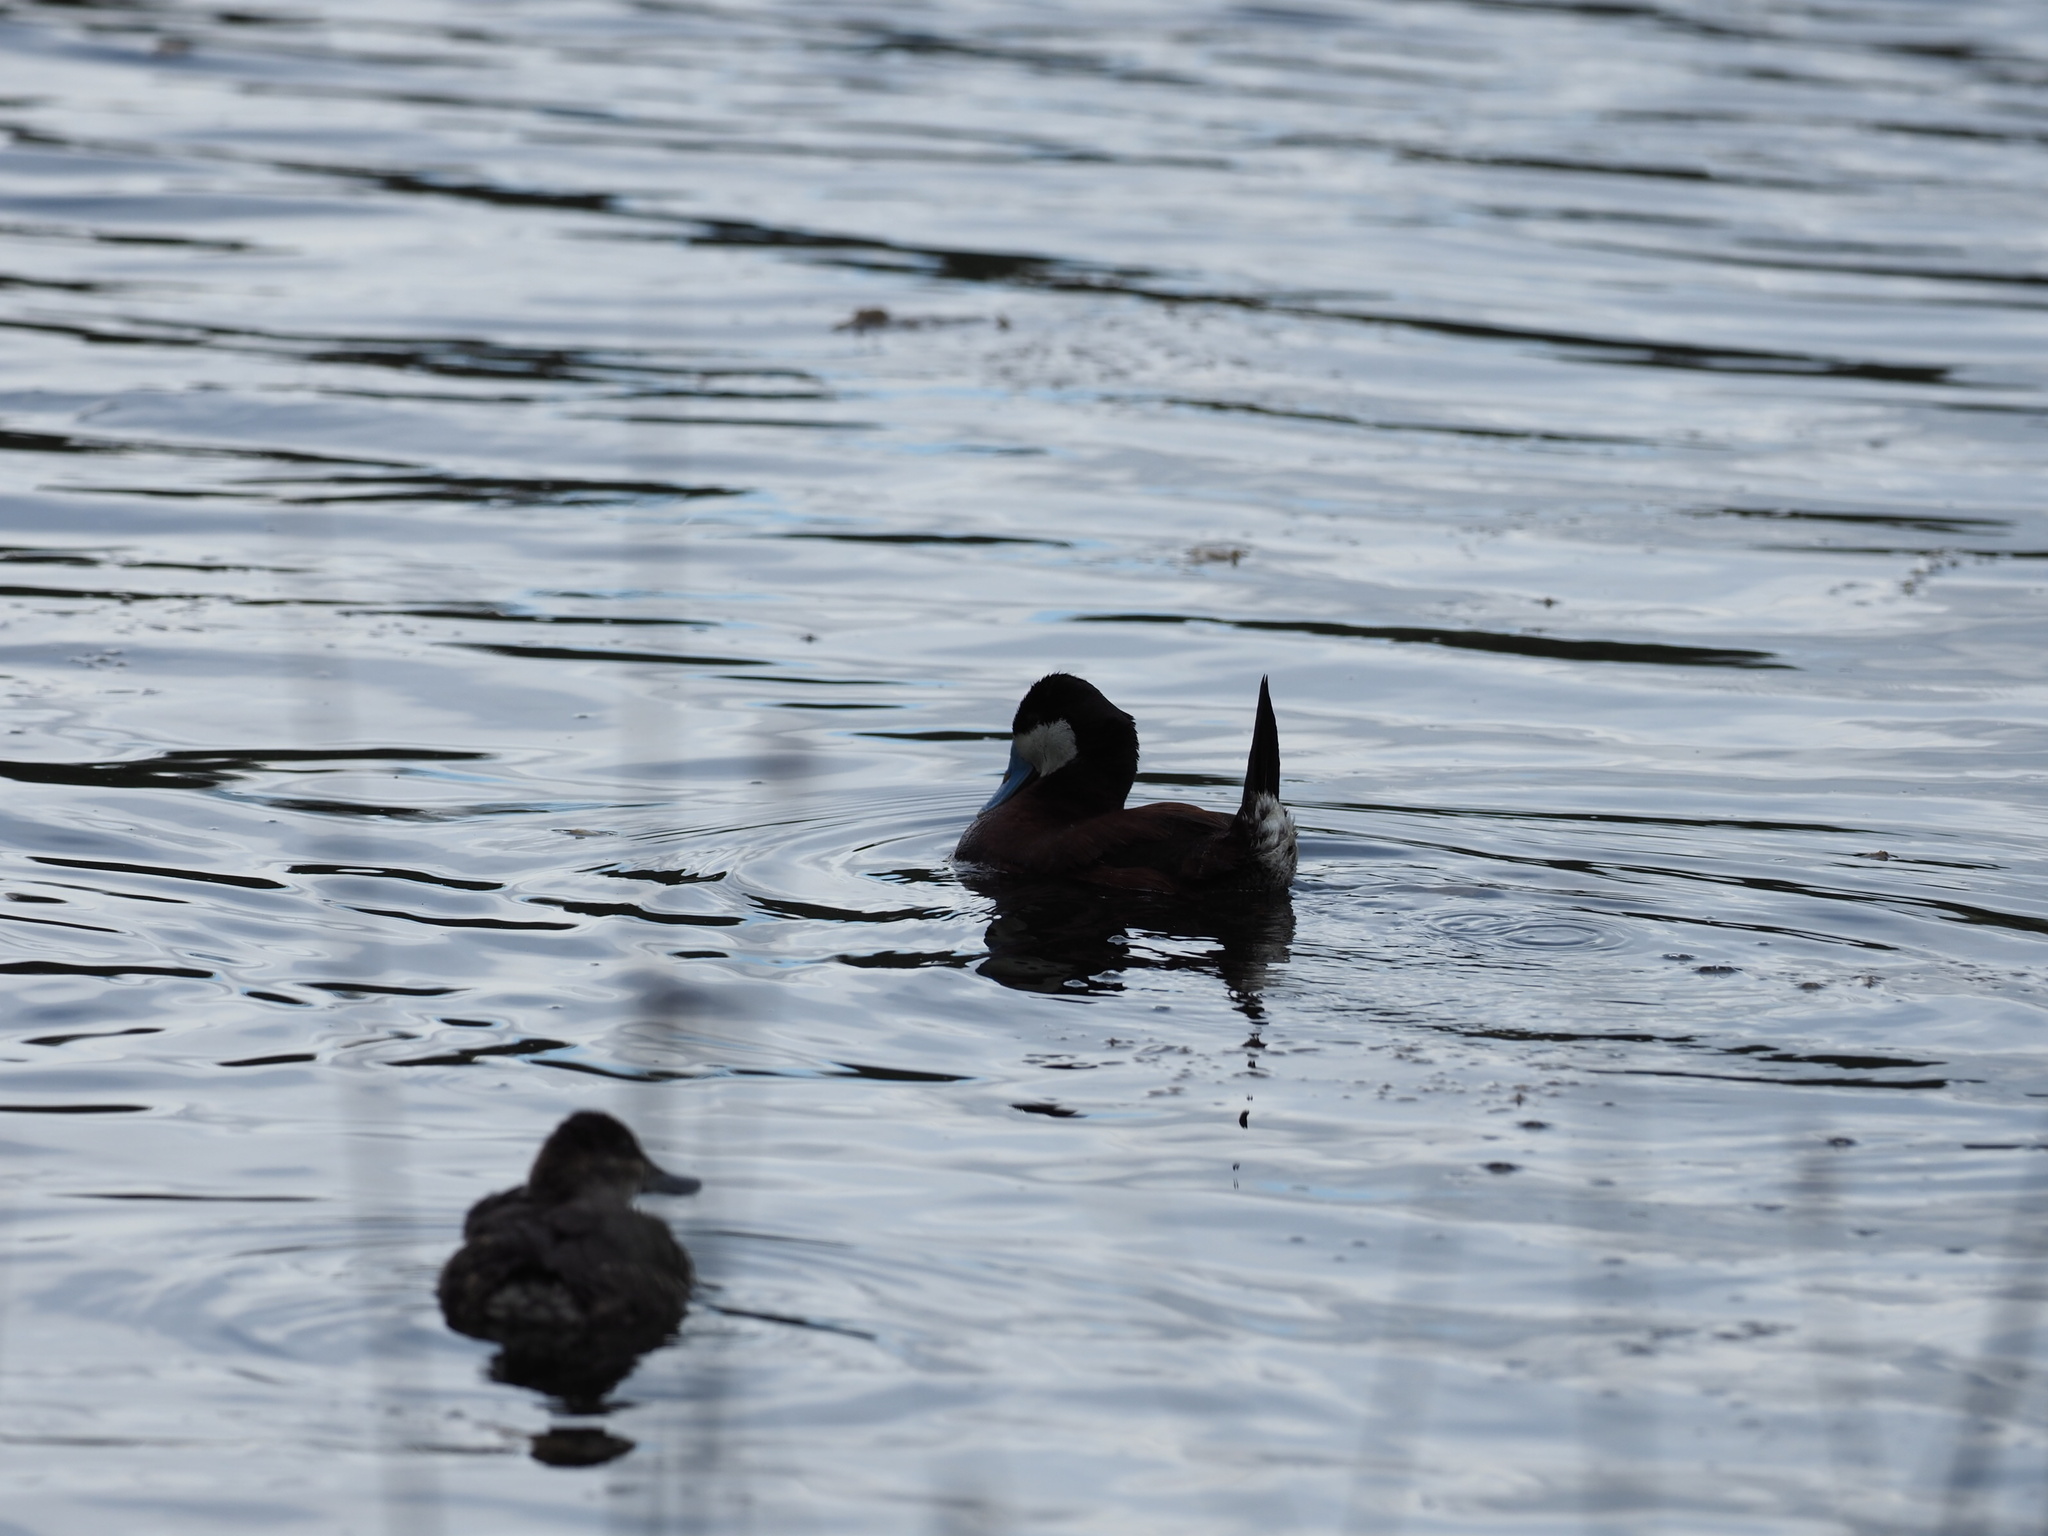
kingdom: Animalia
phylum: Chordata
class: Aves
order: Anseriformes
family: Anatidae
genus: Oxyura
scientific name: Oxyura jamaicensis
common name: Ruddy duck
